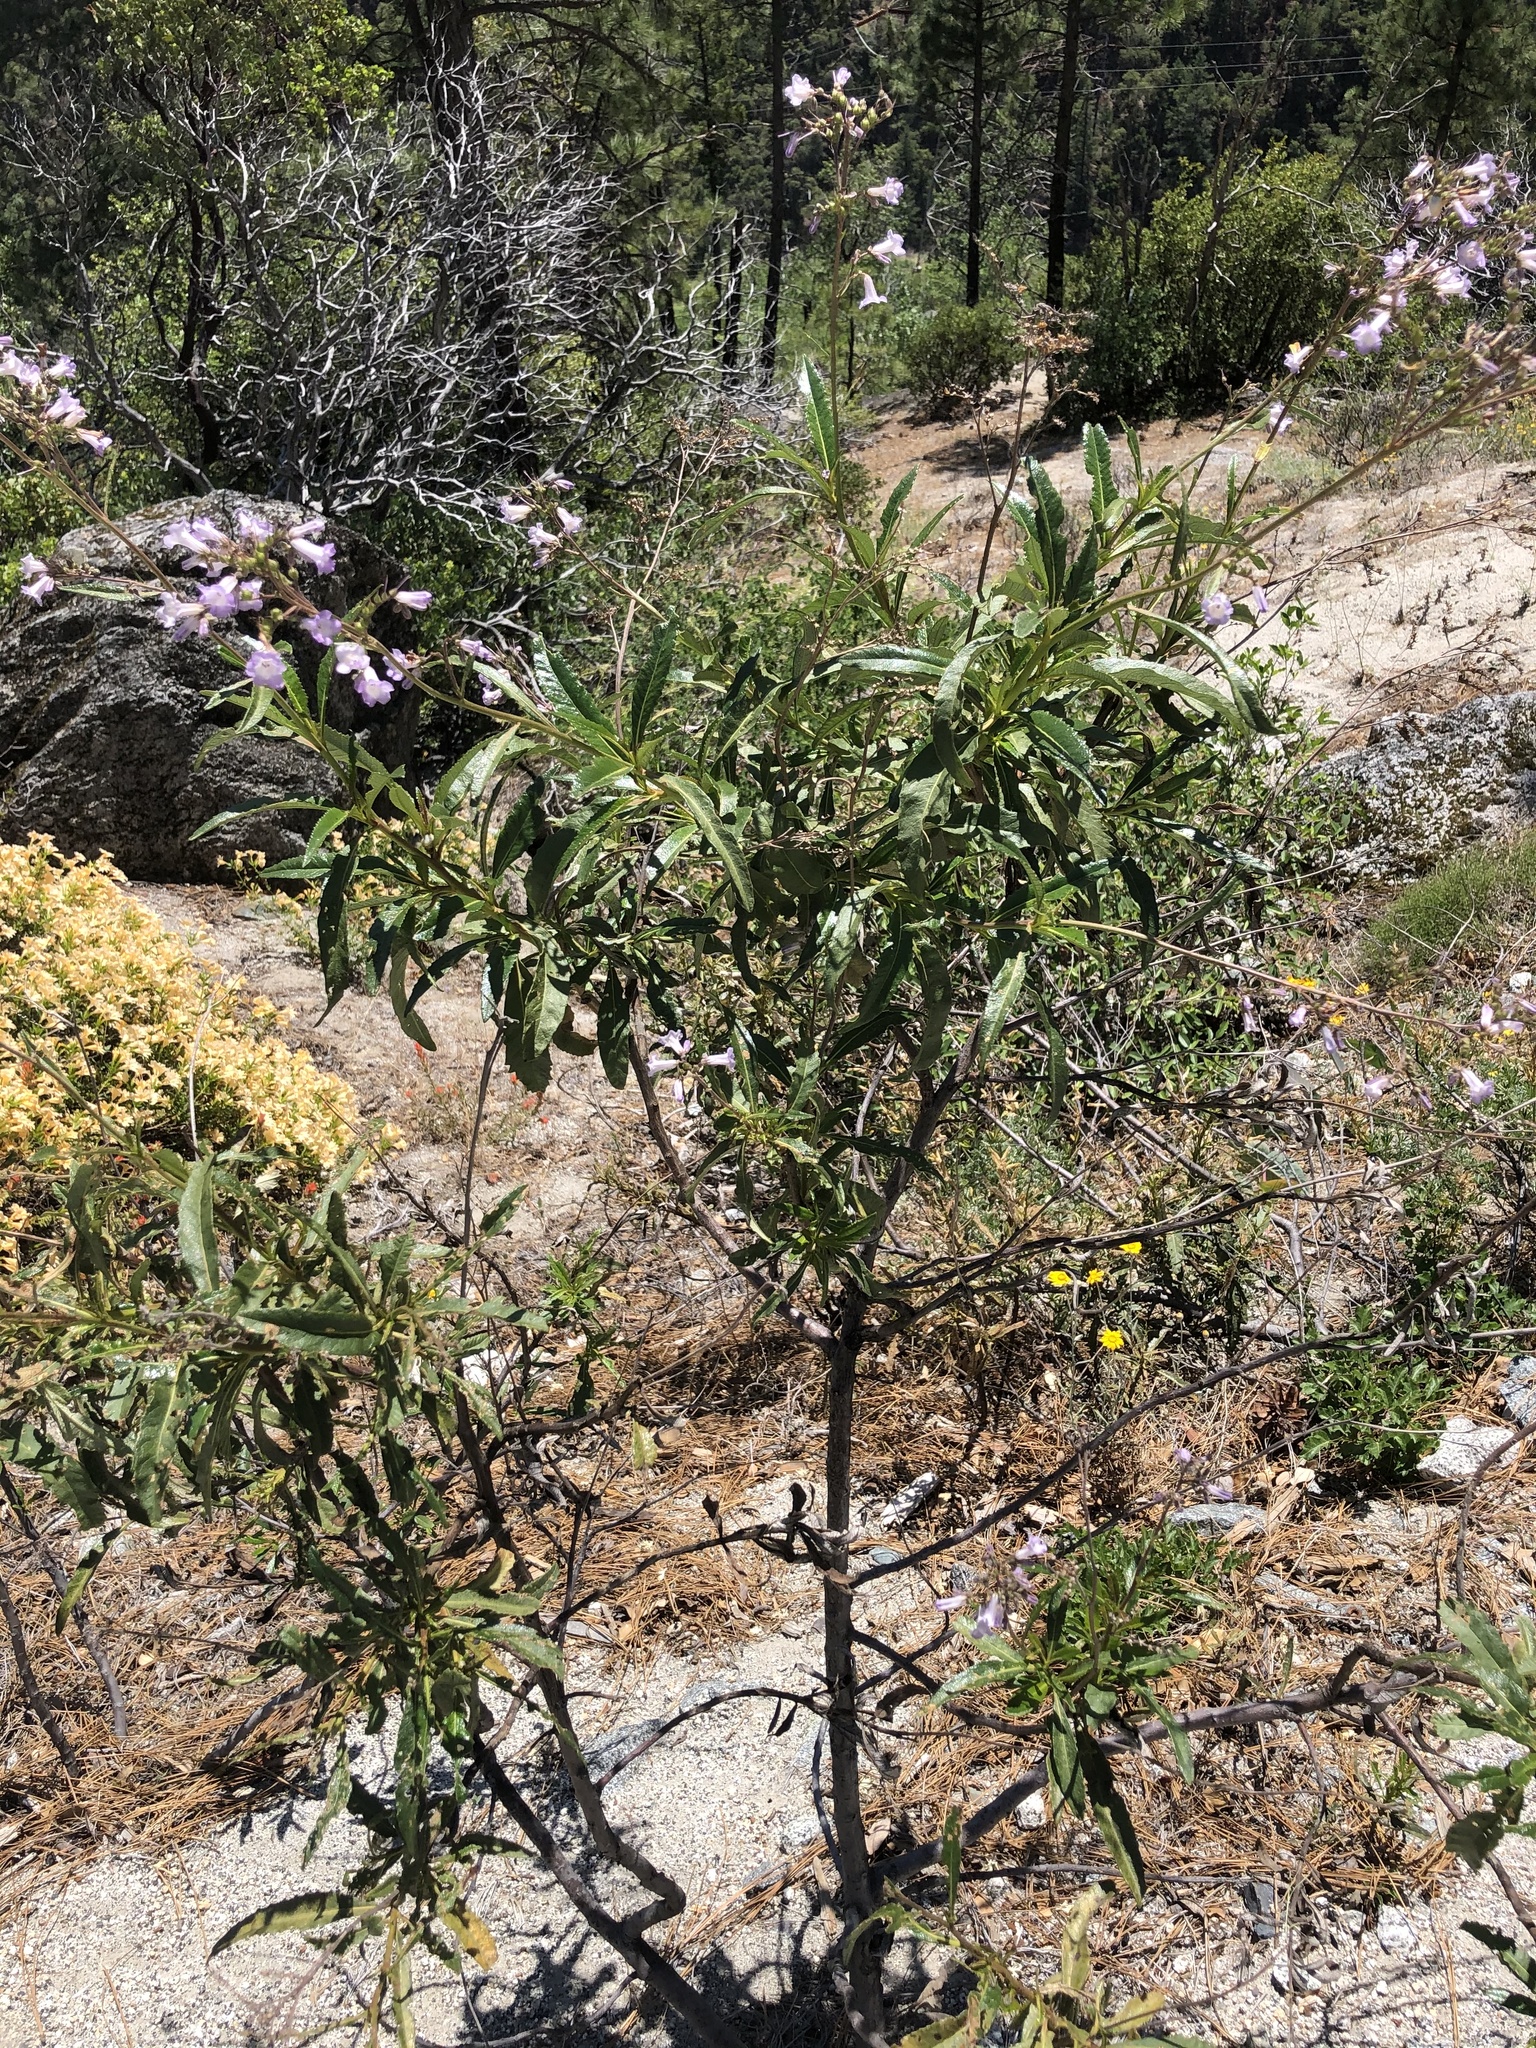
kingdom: Plantae
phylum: Tracheophyta
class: Magnoliopsida
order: Boraginales
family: Namaceae
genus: Eriodictyon
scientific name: Eriodictyon californicum
